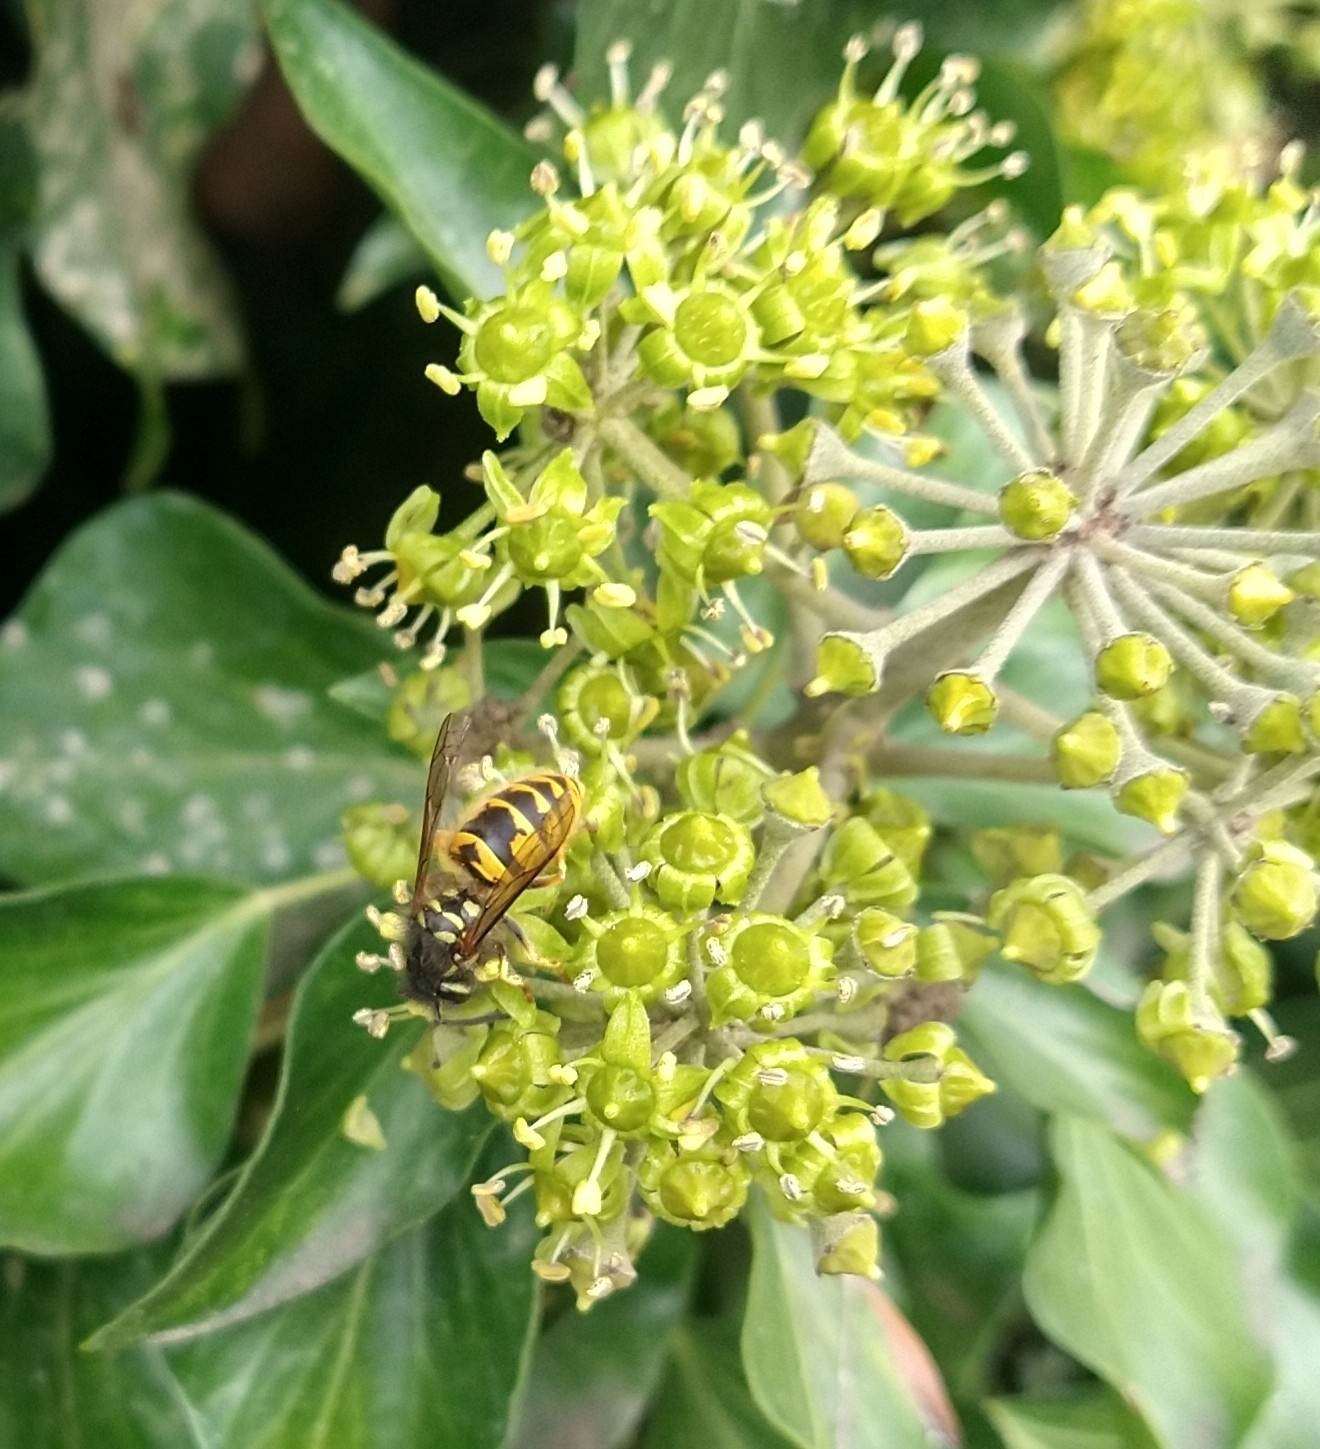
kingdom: Animalia
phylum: Arthropoda
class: Insecta
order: Hymenoptera
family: Vespidae
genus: Vespula
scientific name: Vespula vulgaris
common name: Common wasp
